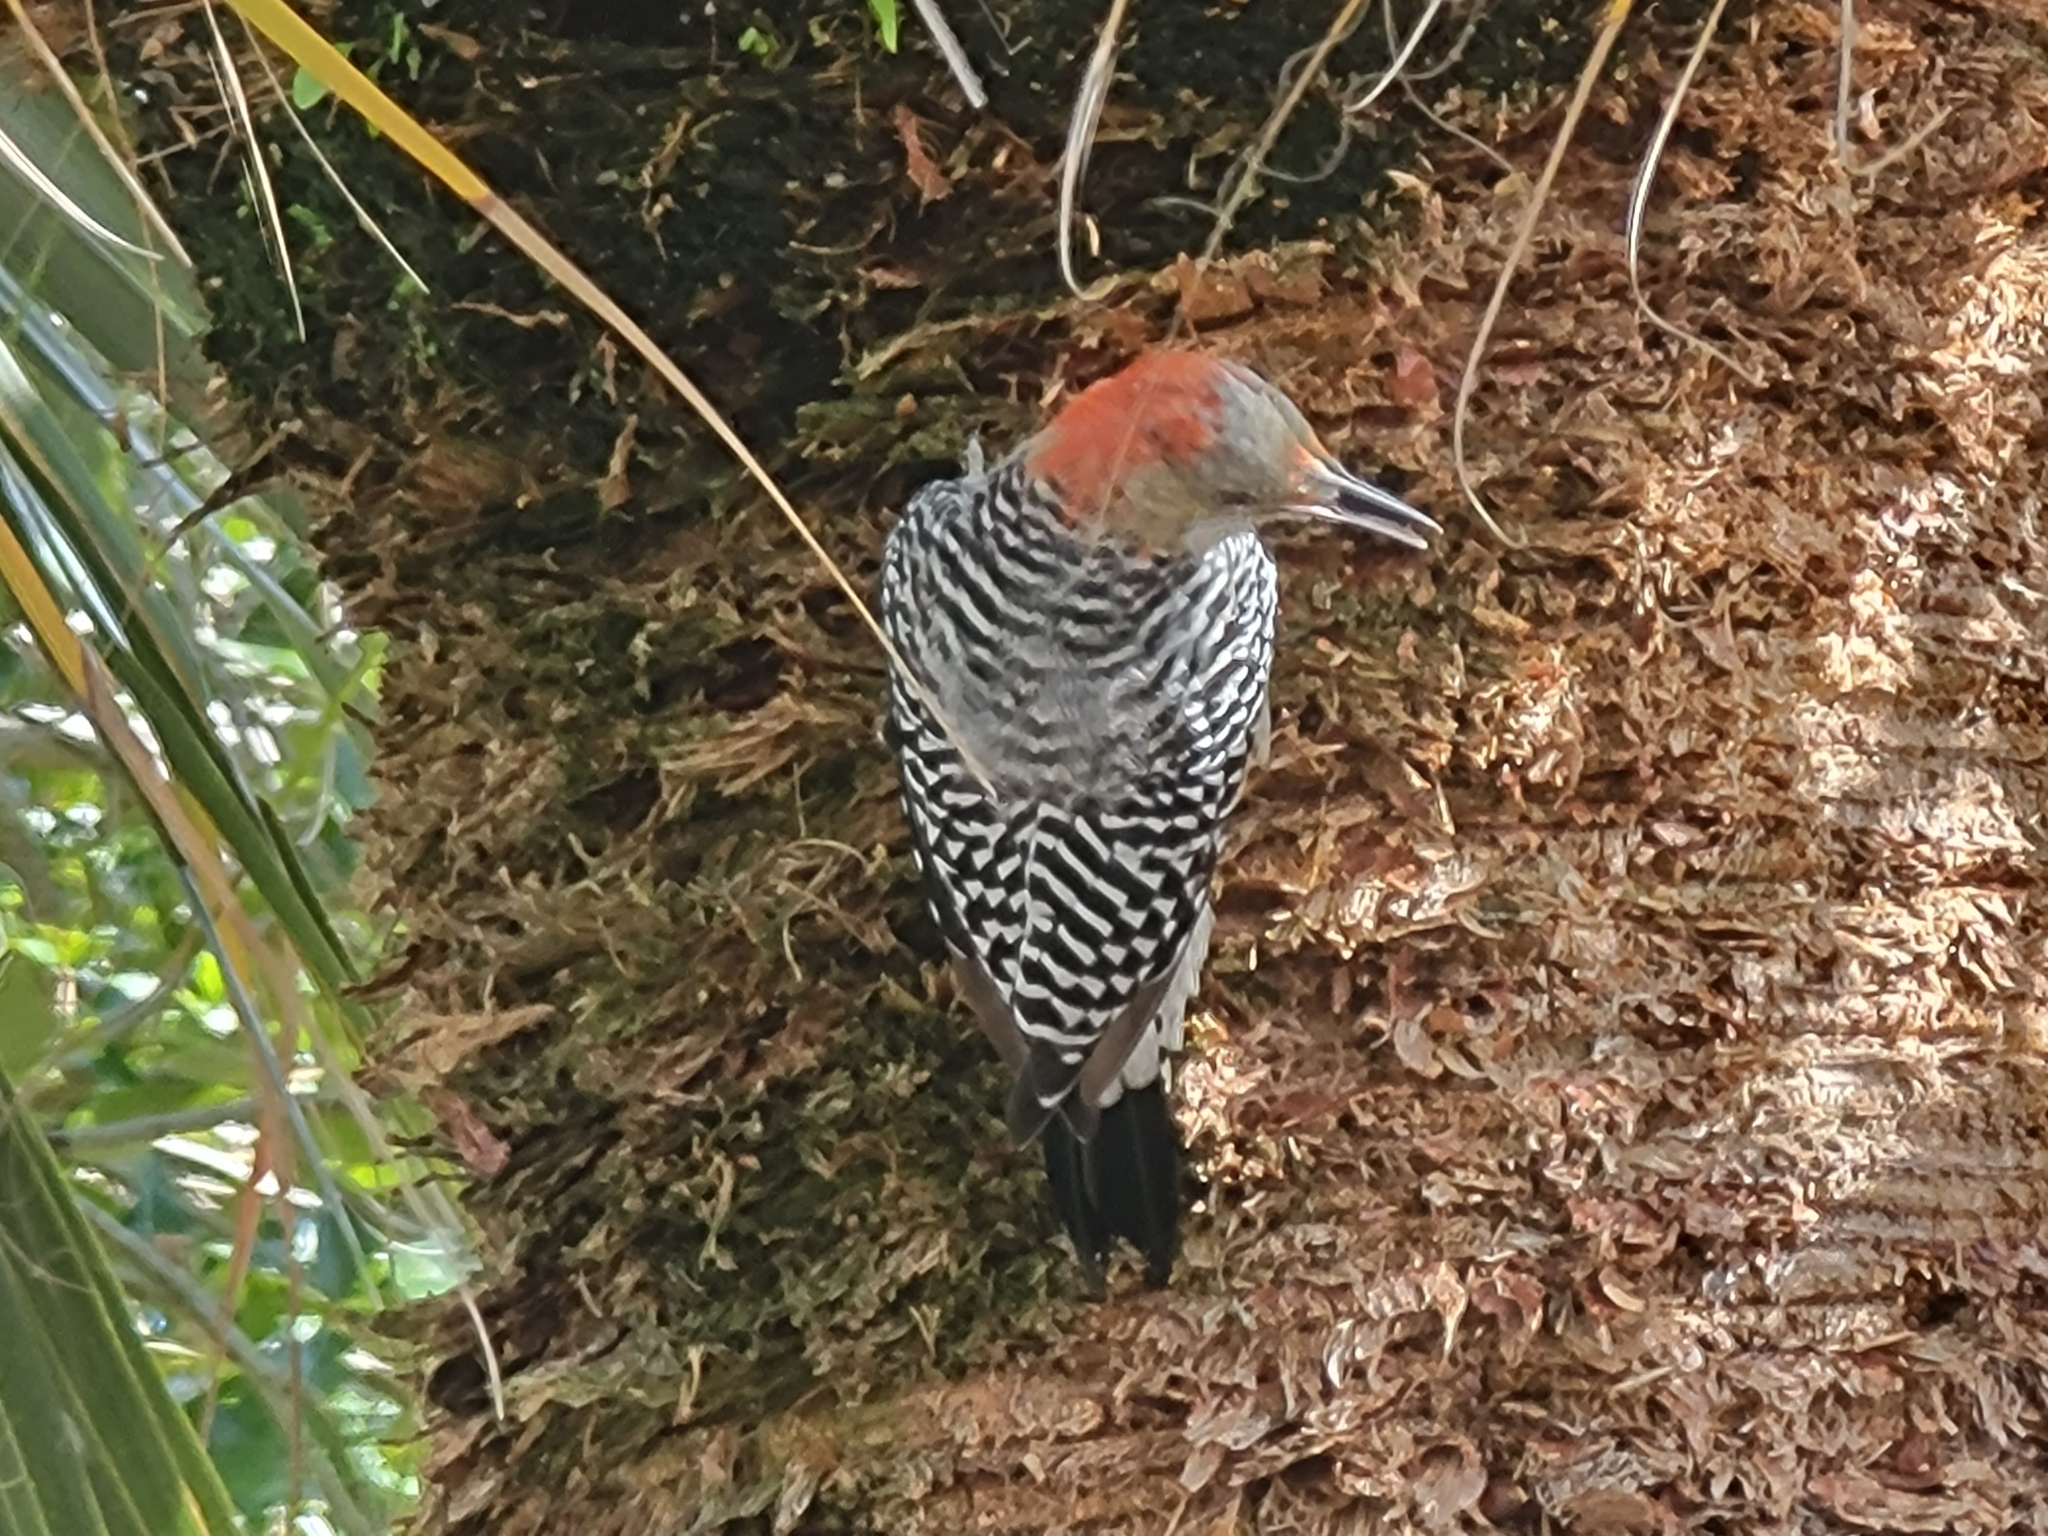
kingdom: Animalia
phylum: Chordata
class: Aves
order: Piciformes
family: Picidae
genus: Melanerpes
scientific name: Melanerpes carolinus
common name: Red-bellied woodpecker
